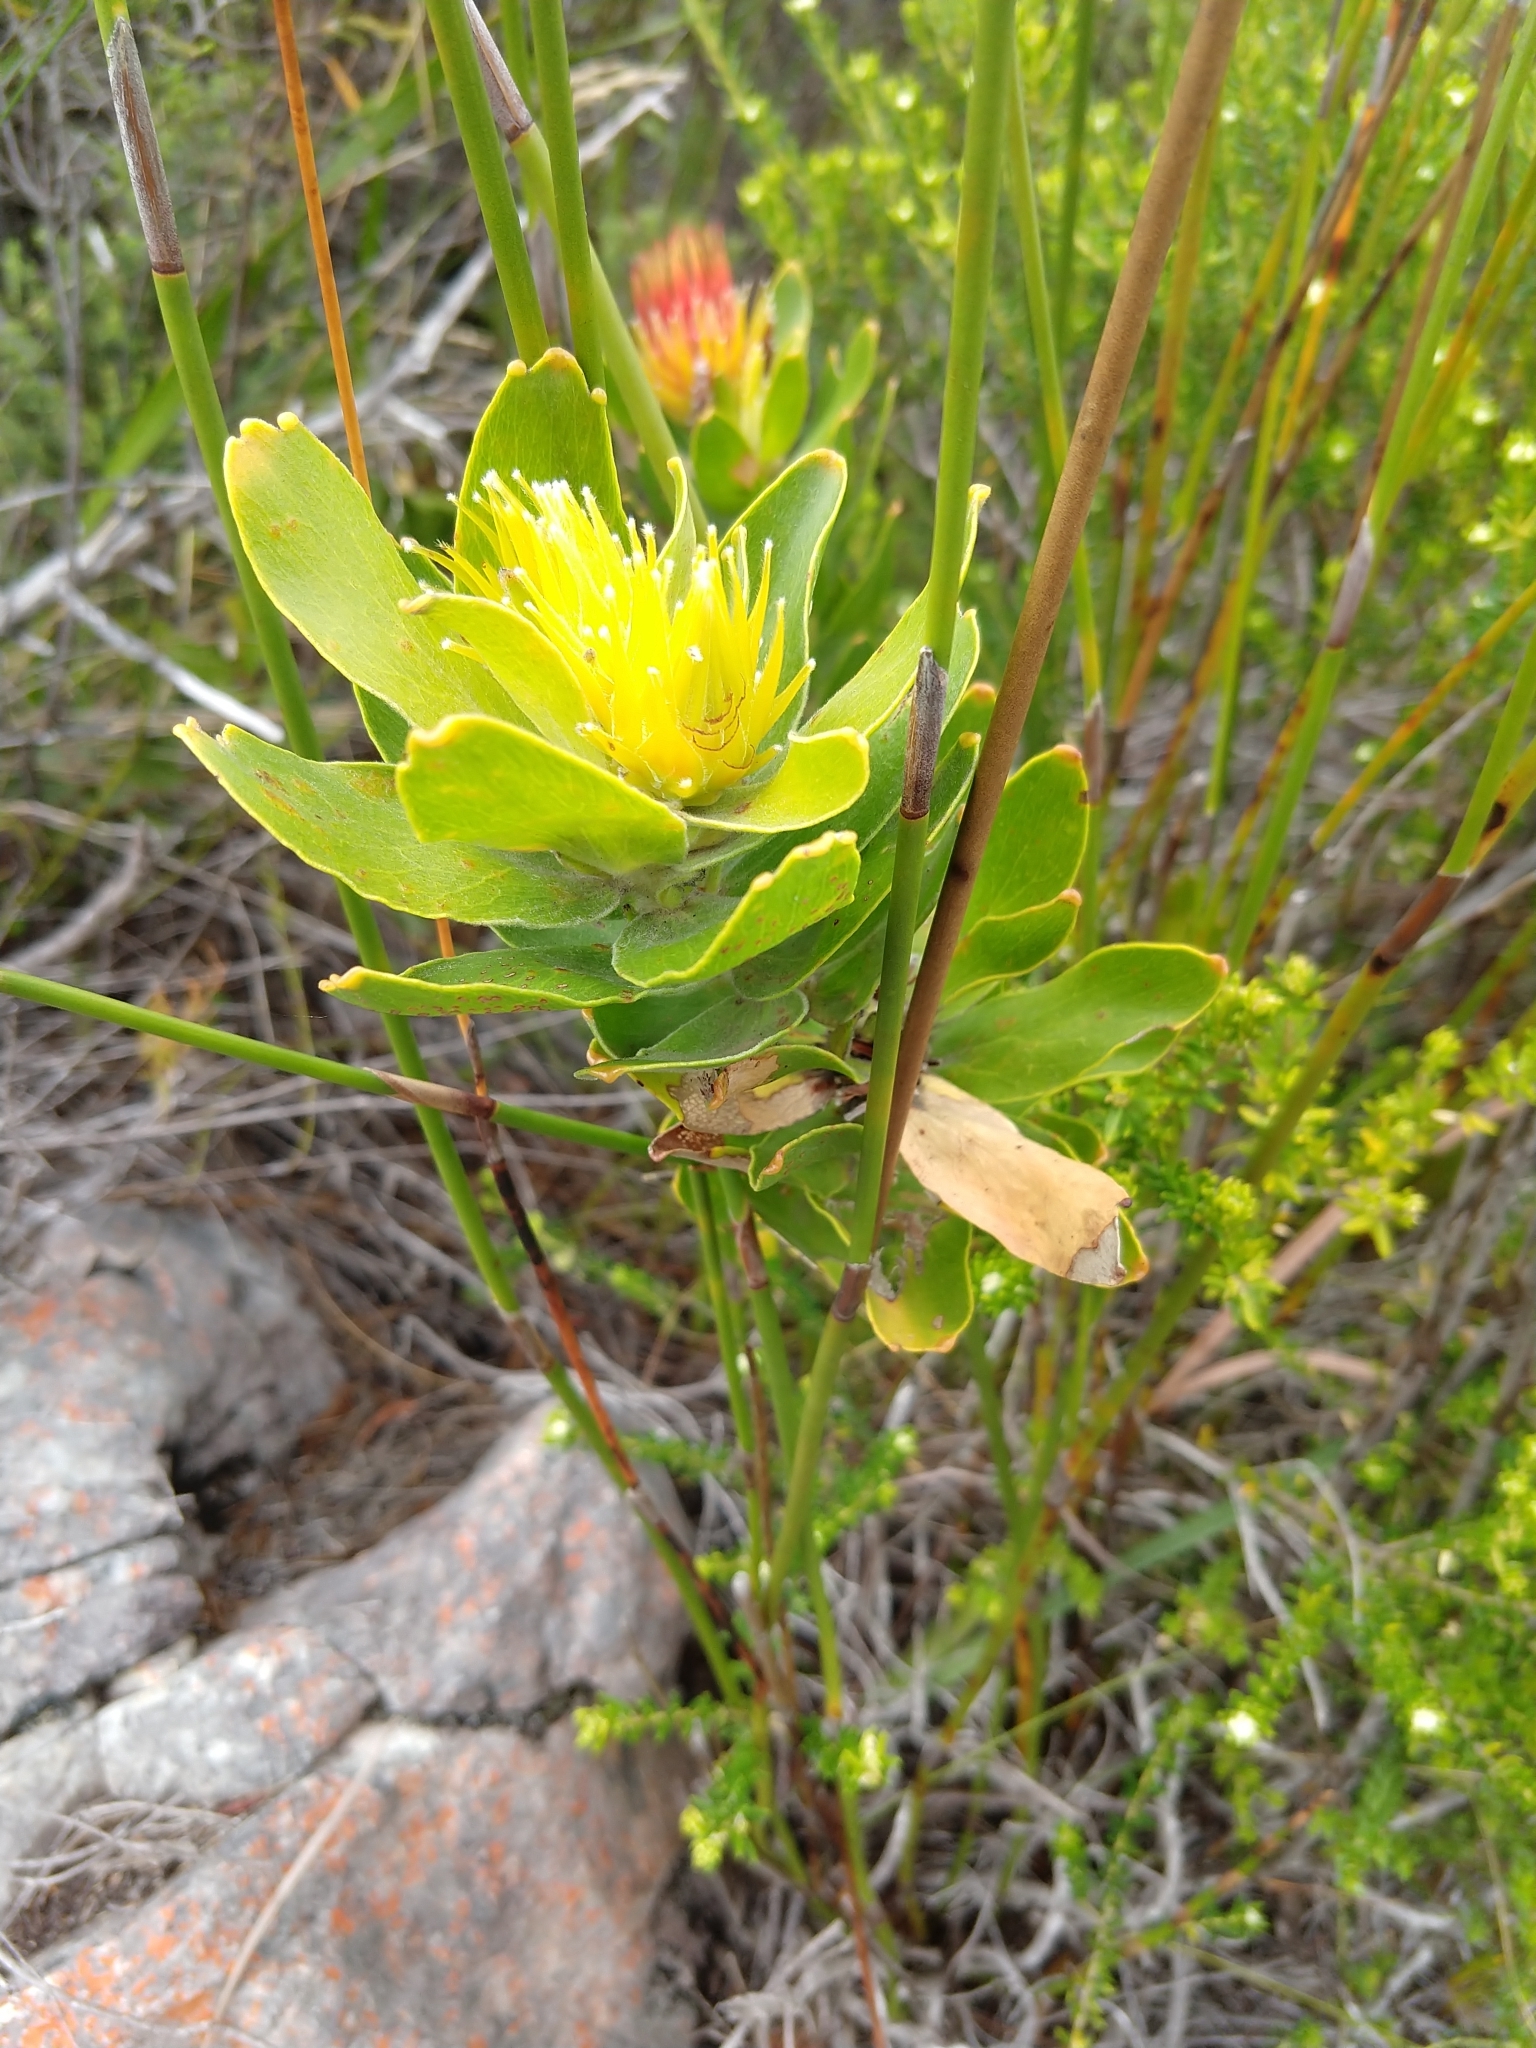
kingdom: Plantae
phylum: Tracheophyta
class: Magnoliopsida
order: Proteales
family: Proteaceae
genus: Leucospermum
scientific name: Leucospermum oleifolium
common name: Matches
